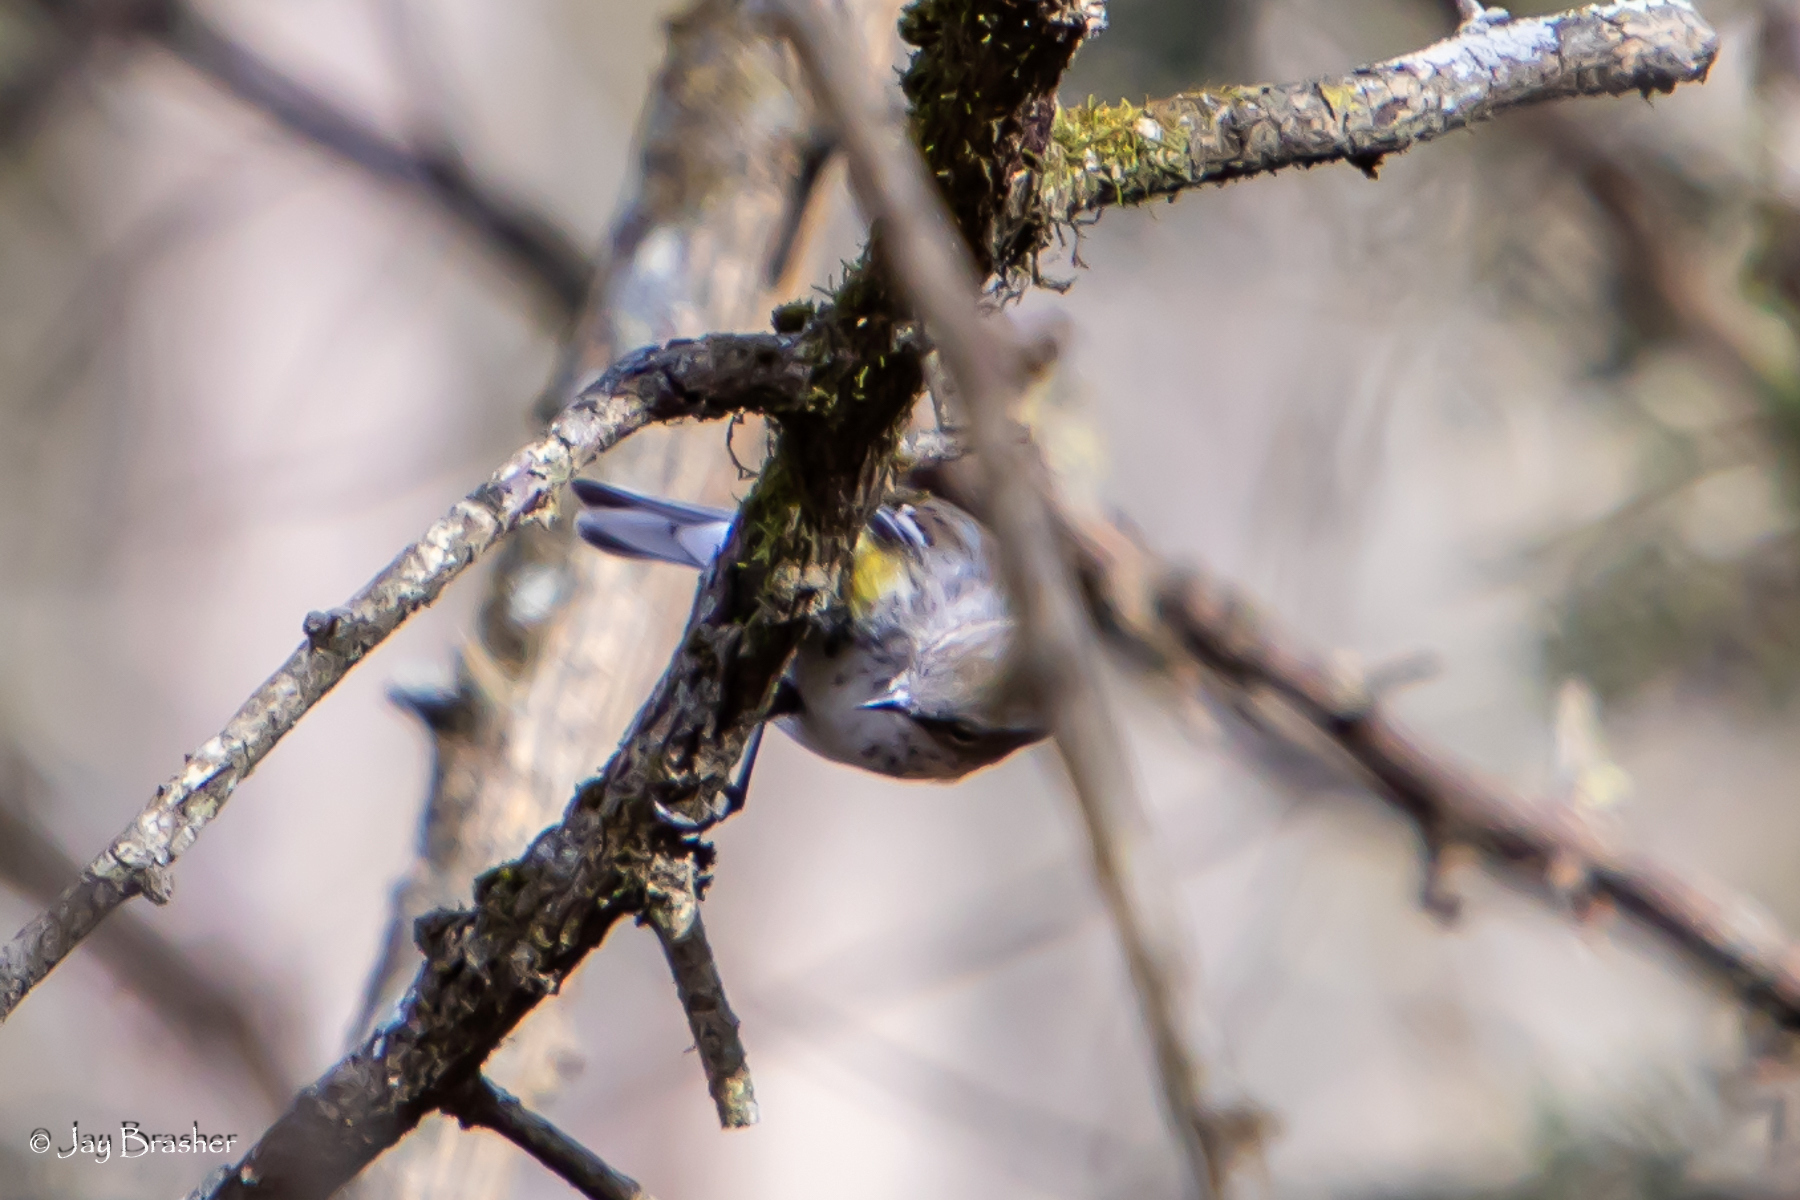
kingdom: Animalia
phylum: Chordata
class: Aves
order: Passeriformes
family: Parulidae
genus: Setophaga
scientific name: Setophaga coronata
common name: Myrtle warbler
